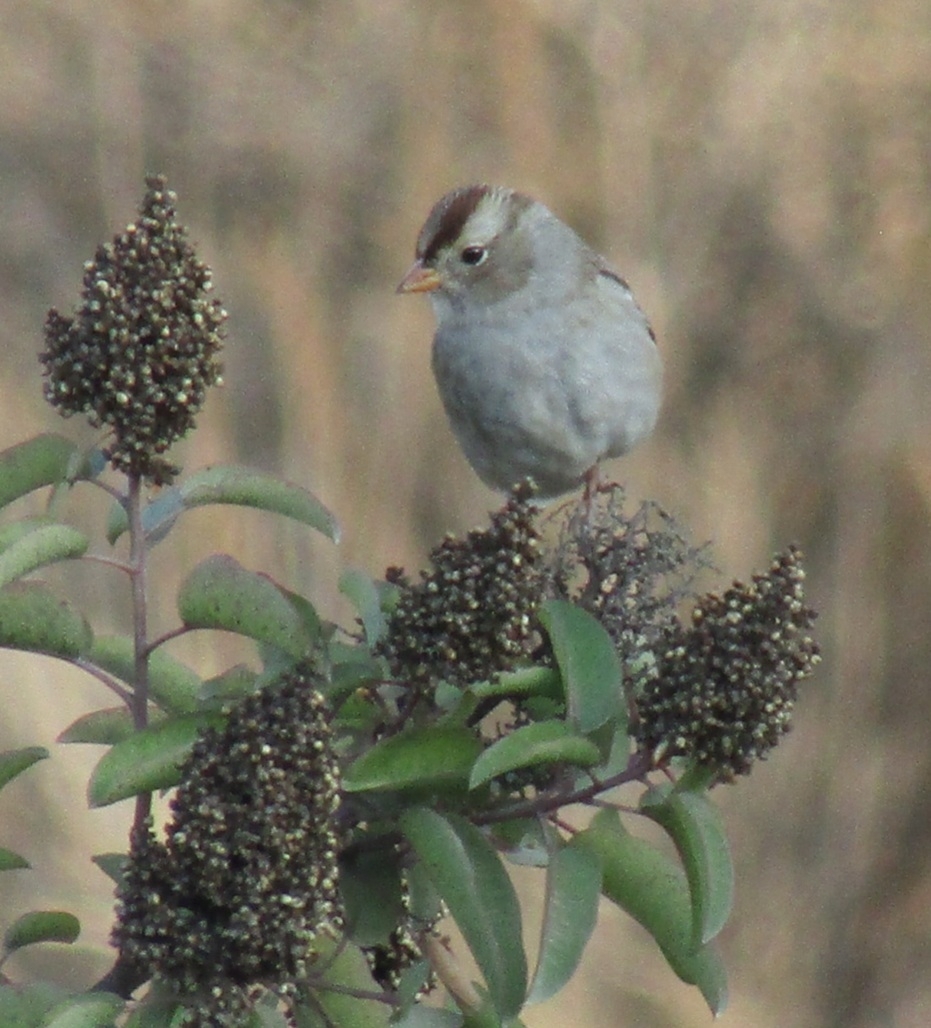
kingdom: Animalia
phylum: Chordata
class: Aves
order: Passeriformes
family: Passerellidae
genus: Zonotrichia
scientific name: Zonotrichia leucophrys
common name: White-crowned sparrow
